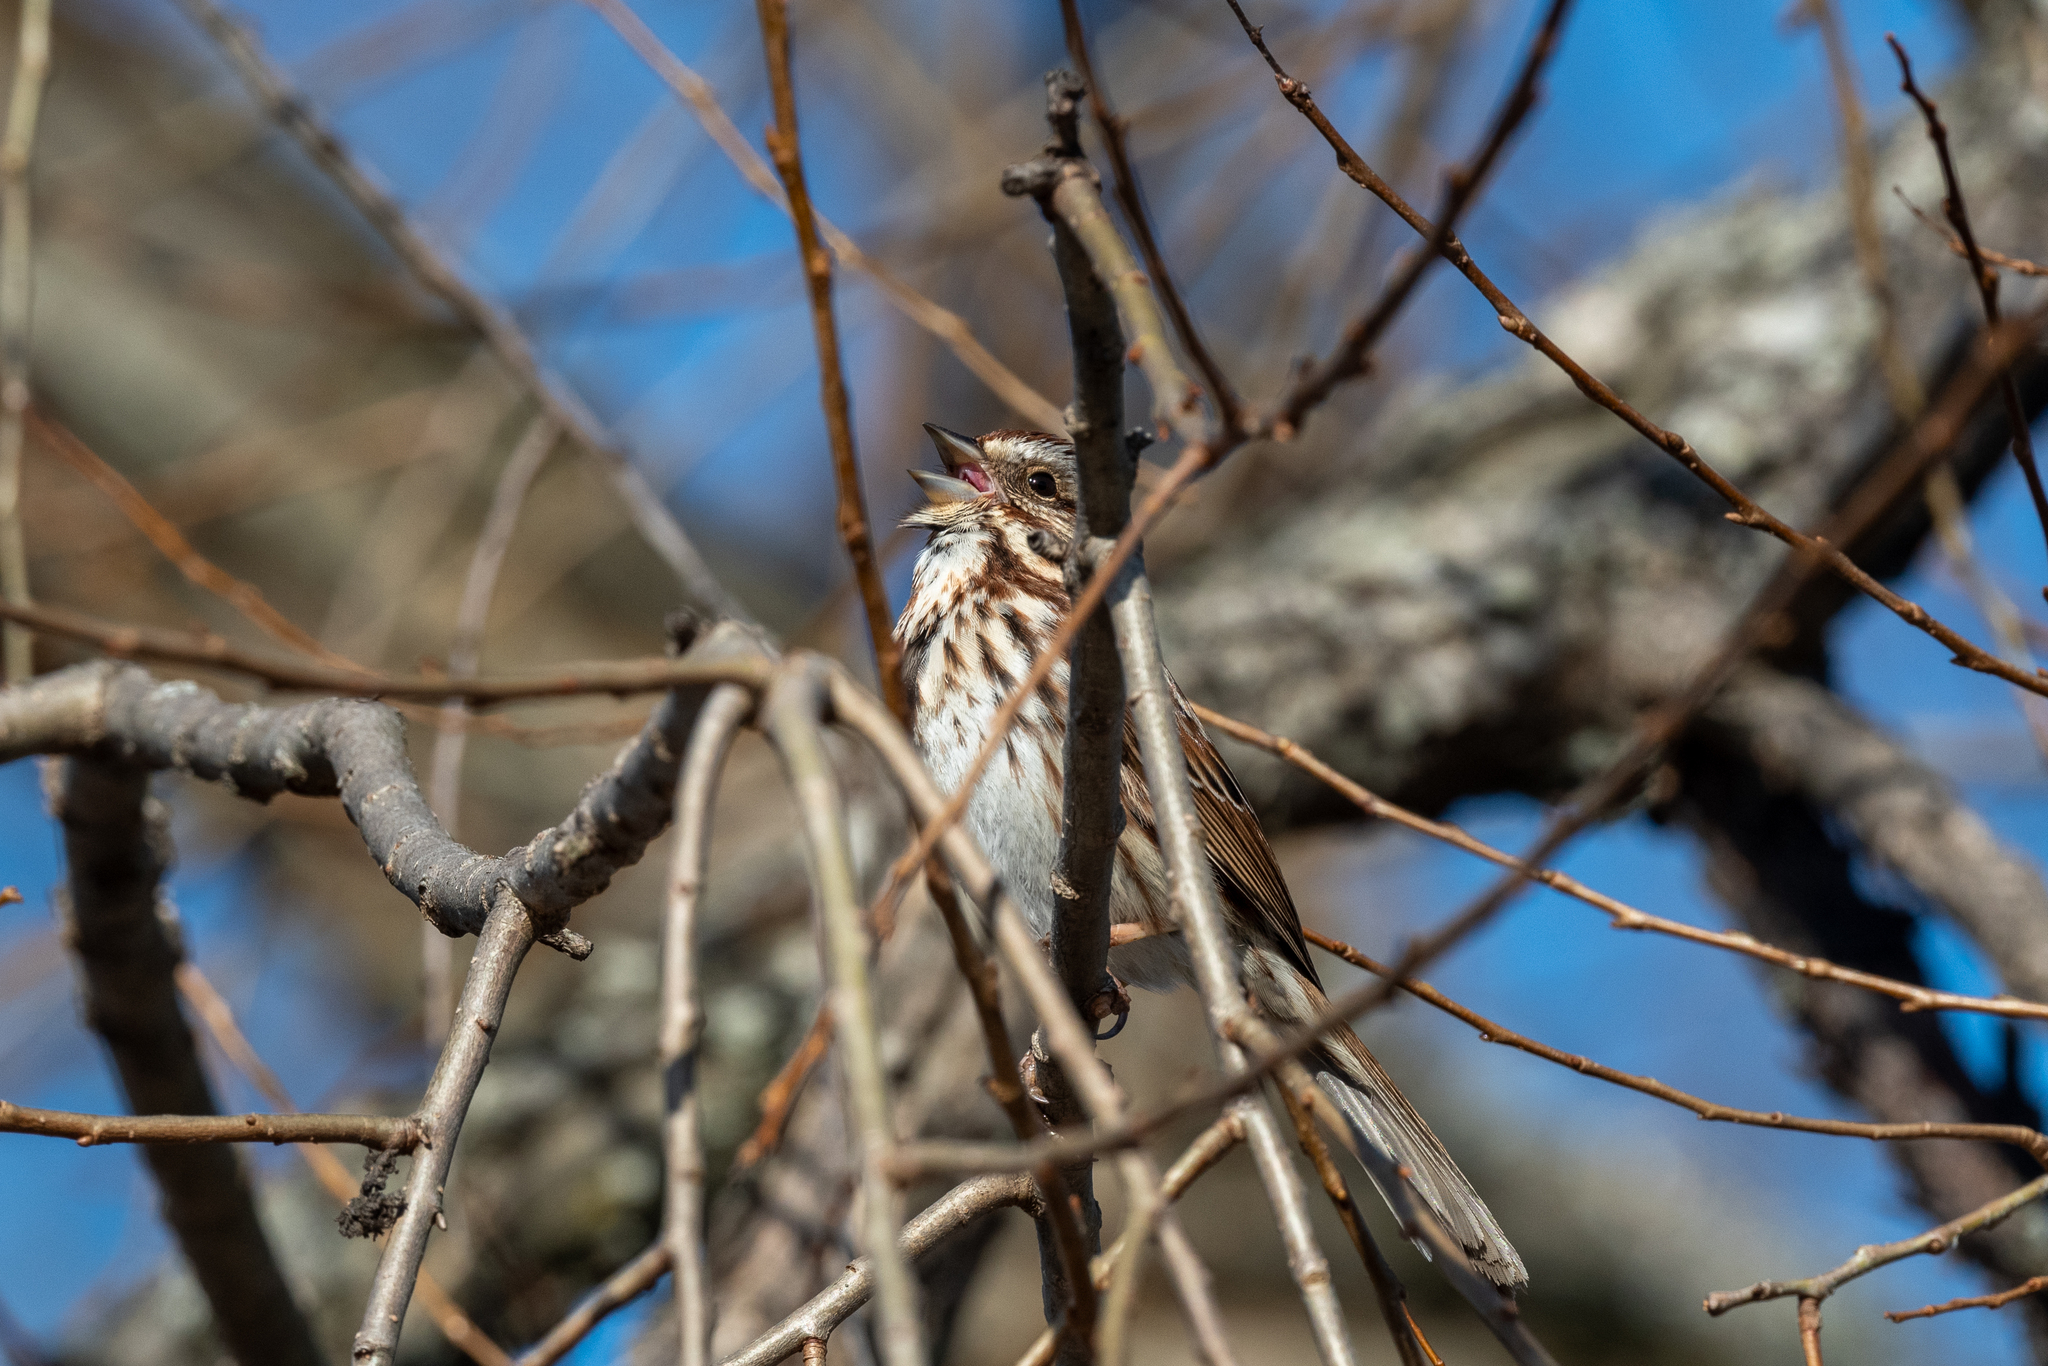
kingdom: Animalia
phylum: Chordata
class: Aves
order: Passeriformes
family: Passerellidae
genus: Melospiza
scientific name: Melospiza melodia
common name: Song sparrow
